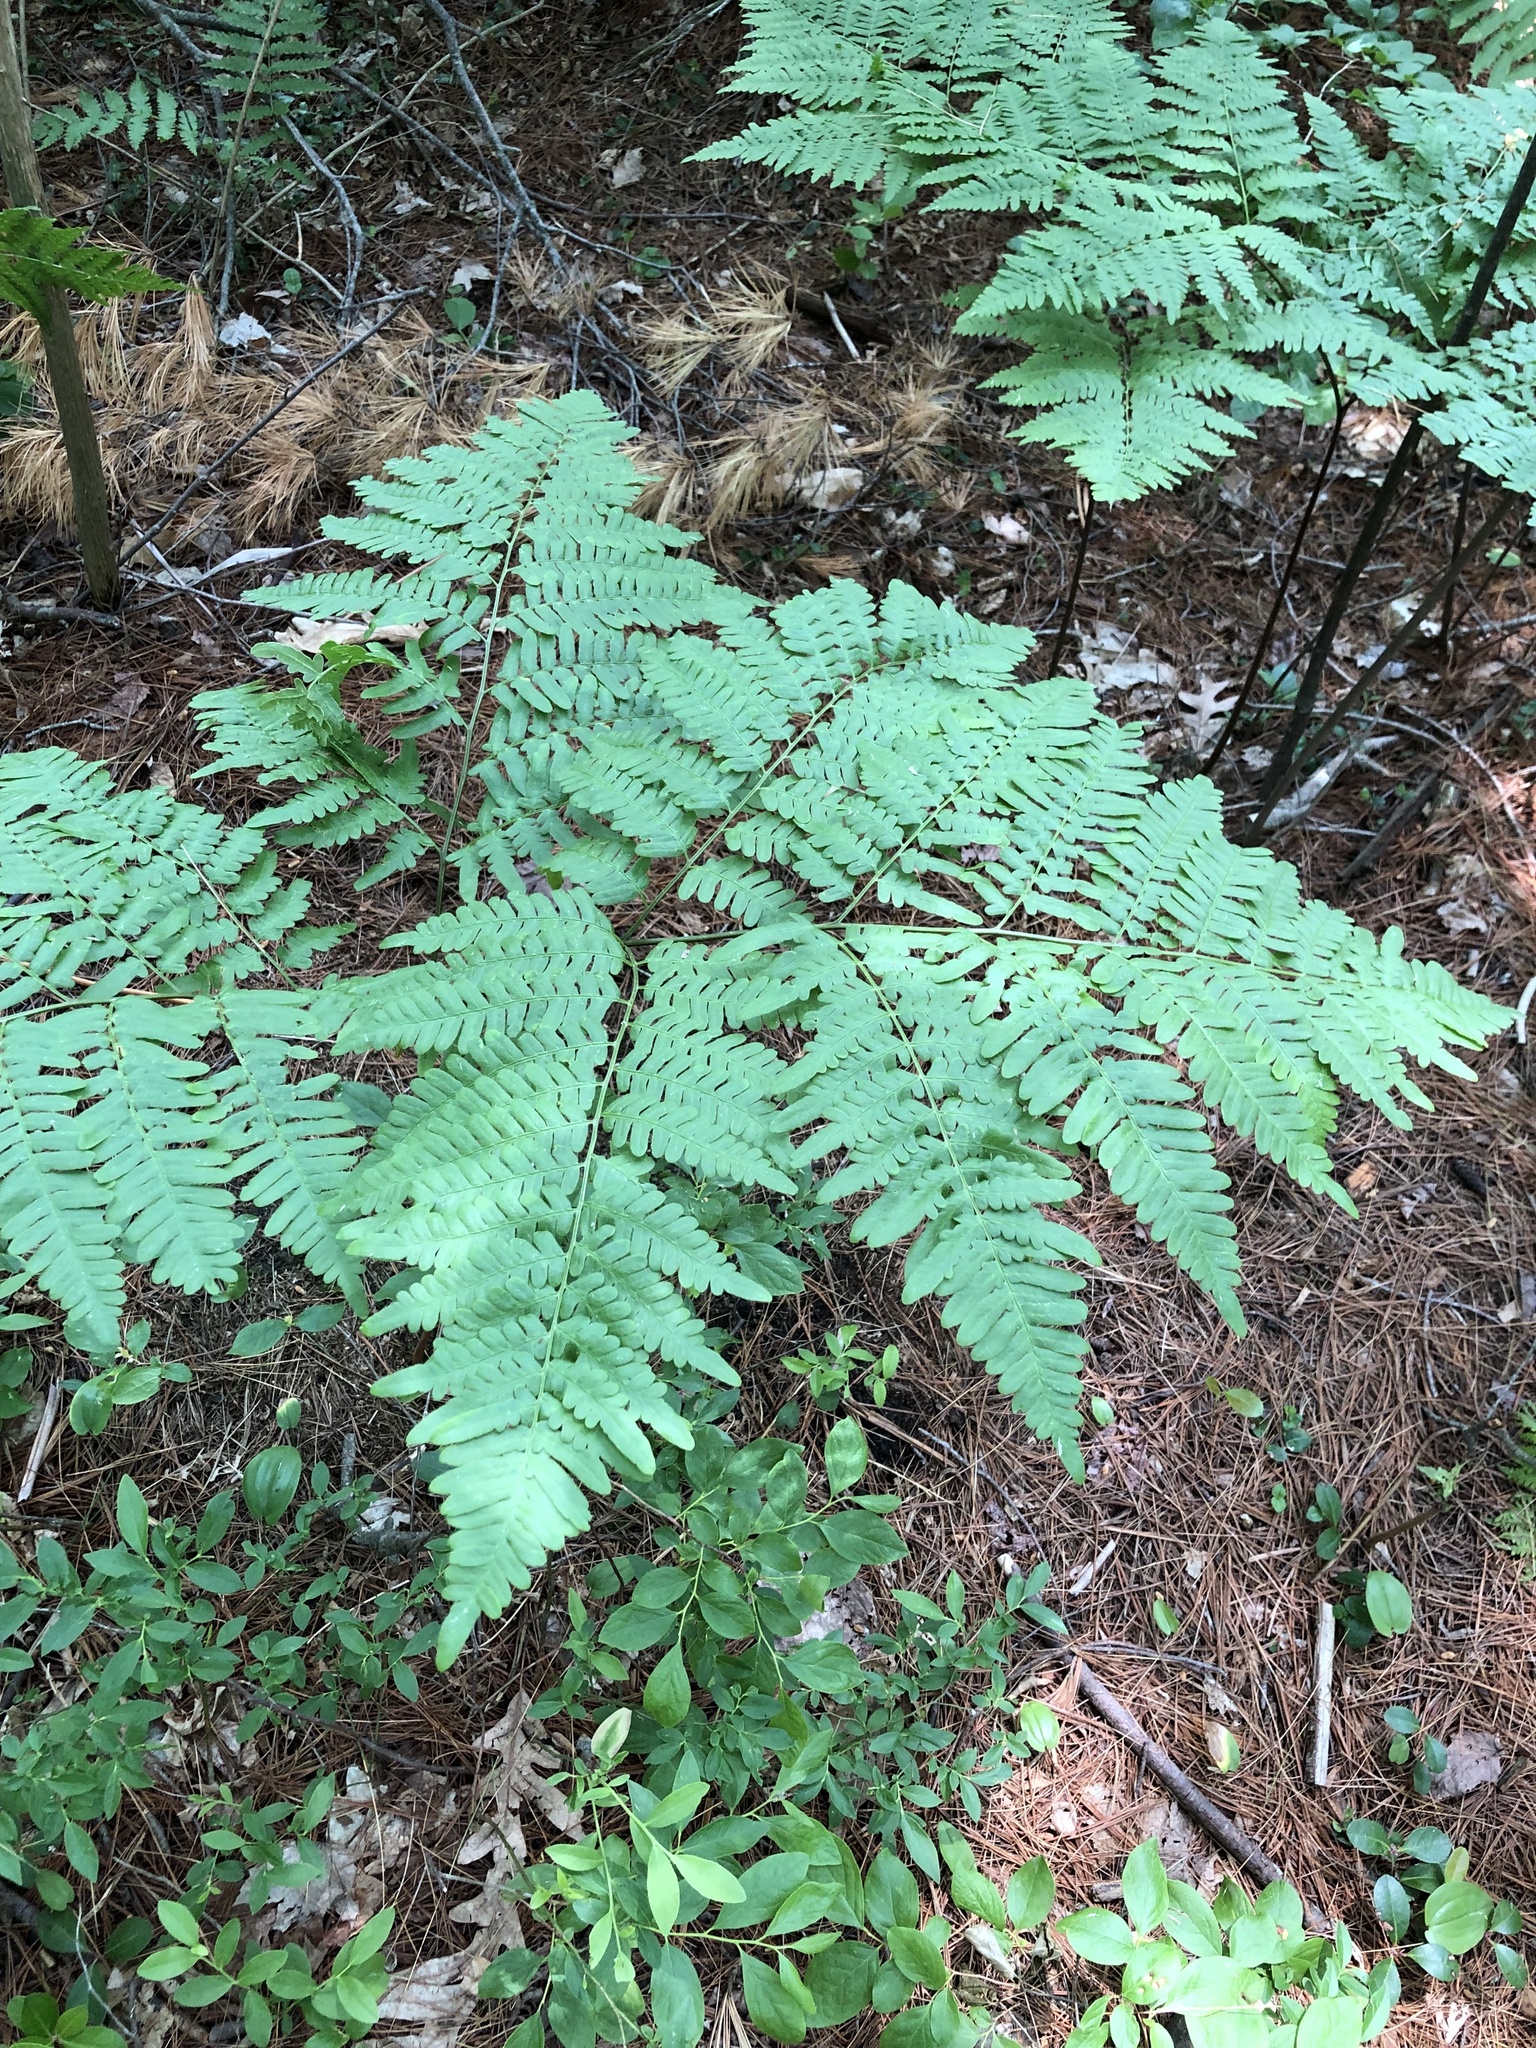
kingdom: Plantae
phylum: Tracheophyta
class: Polypodiopsida
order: Polypodiales
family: Dennstaedtiaceae
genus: Pteridium
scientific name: Pteridium aquilinum
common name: Bracken
